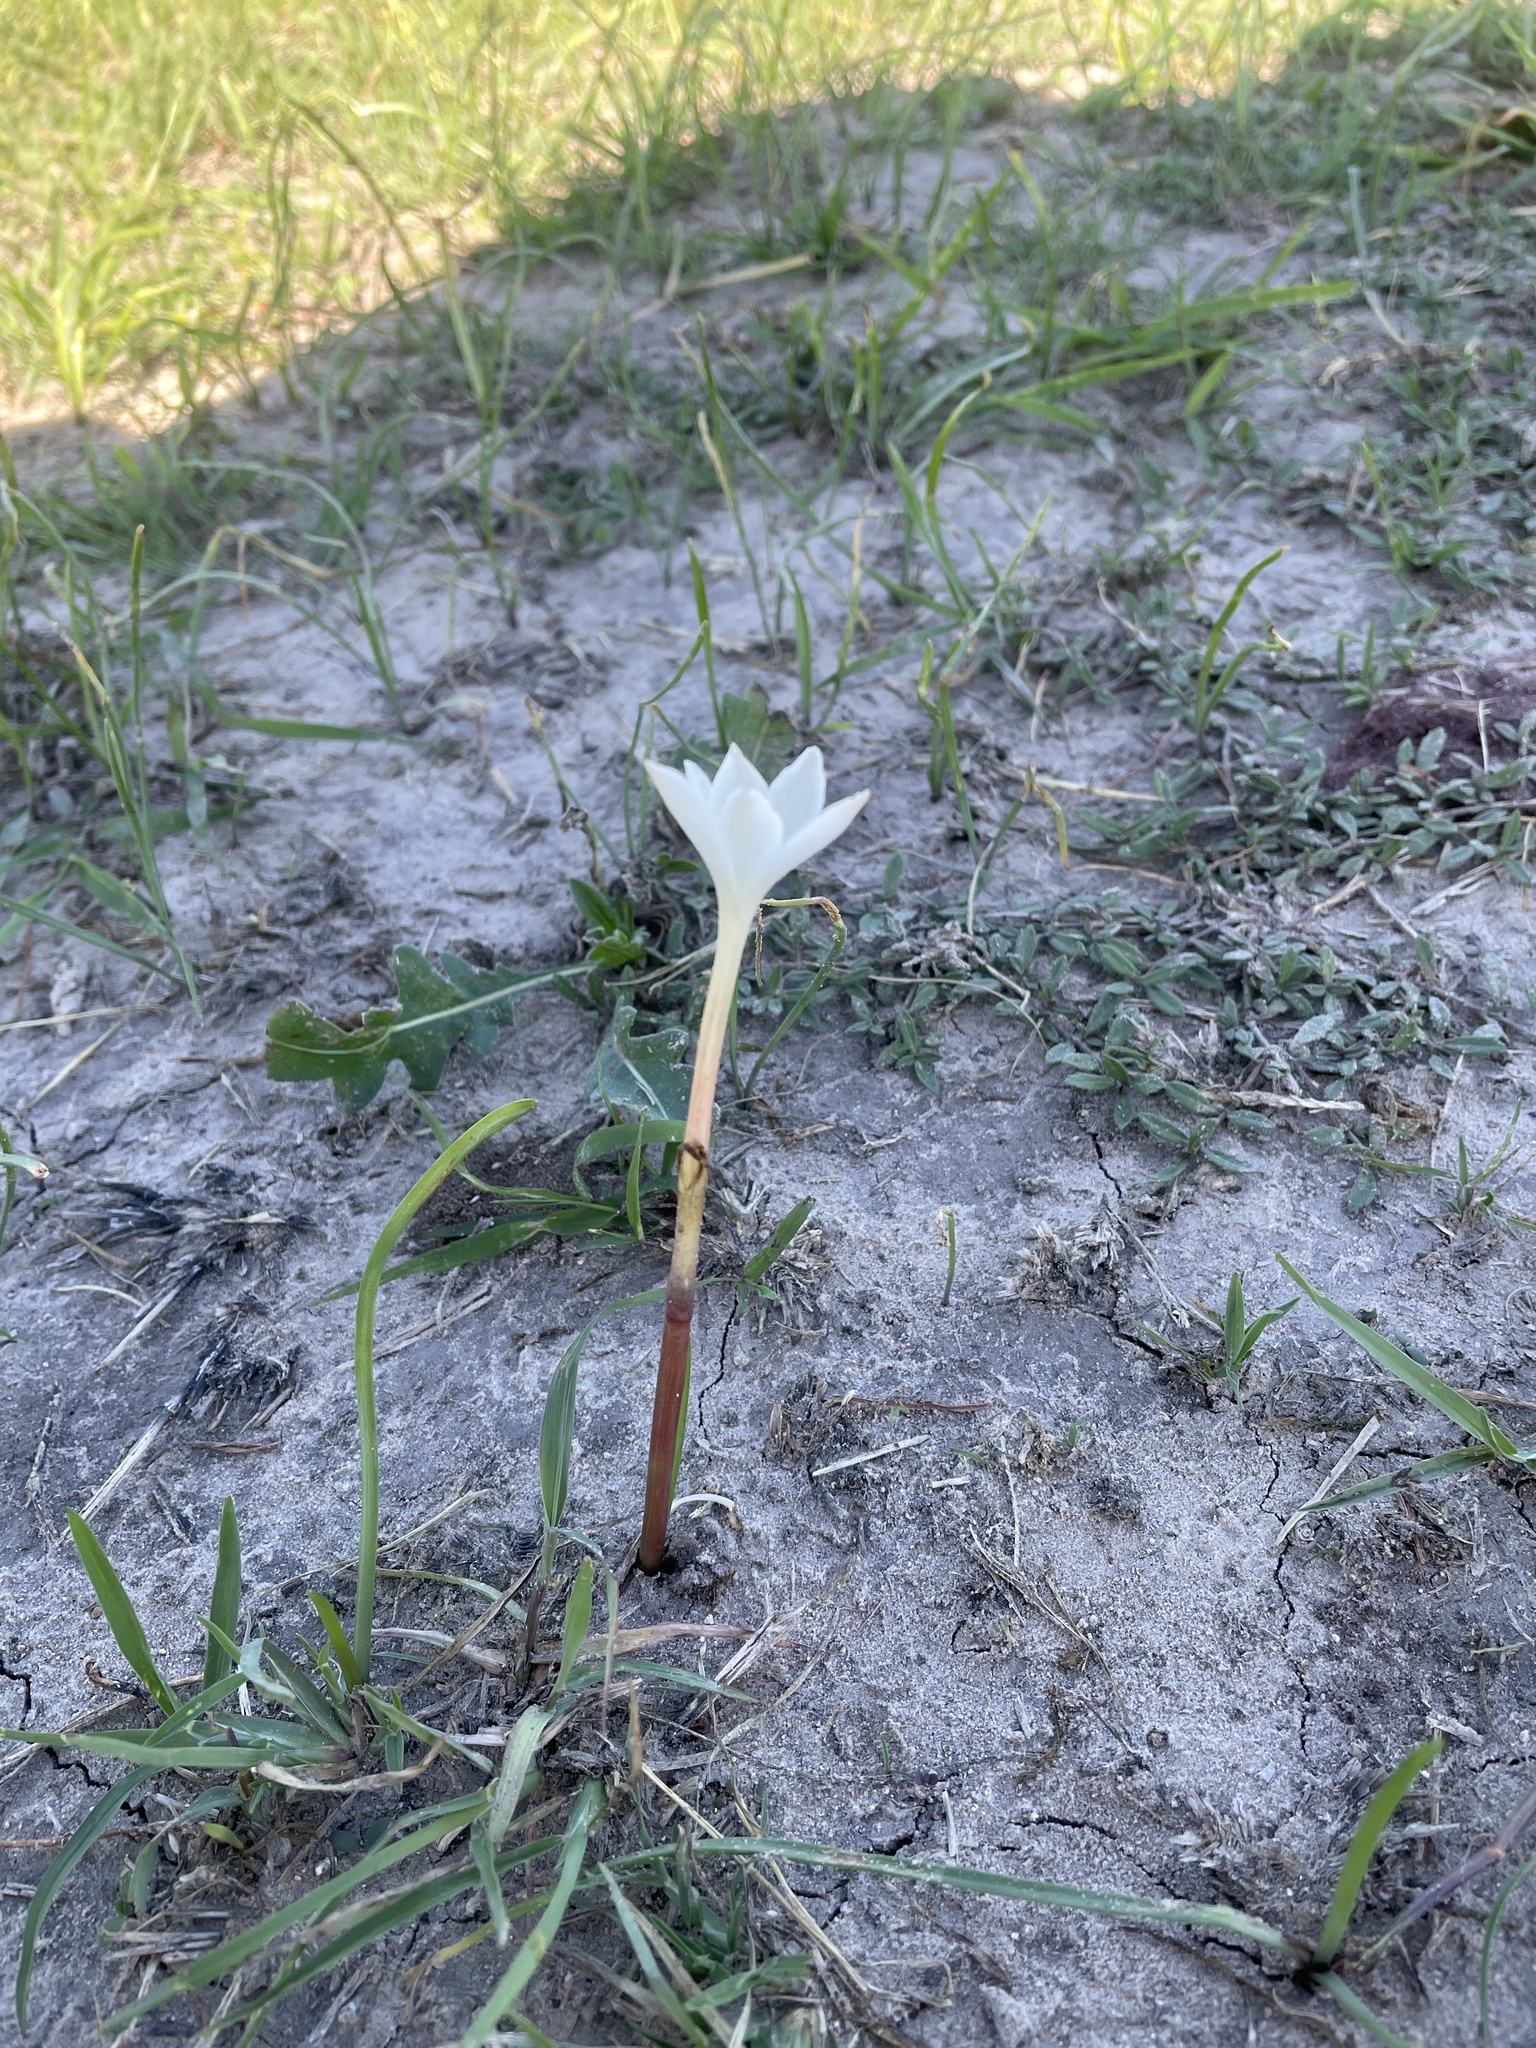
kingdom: Plantae
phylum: Tracheophyta
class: Liliopsida
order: Asparagales
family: Amaryllidaceae
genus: Zephyranthes
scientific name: Zephyranthes chlorosolen
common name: Evening rain-lily
